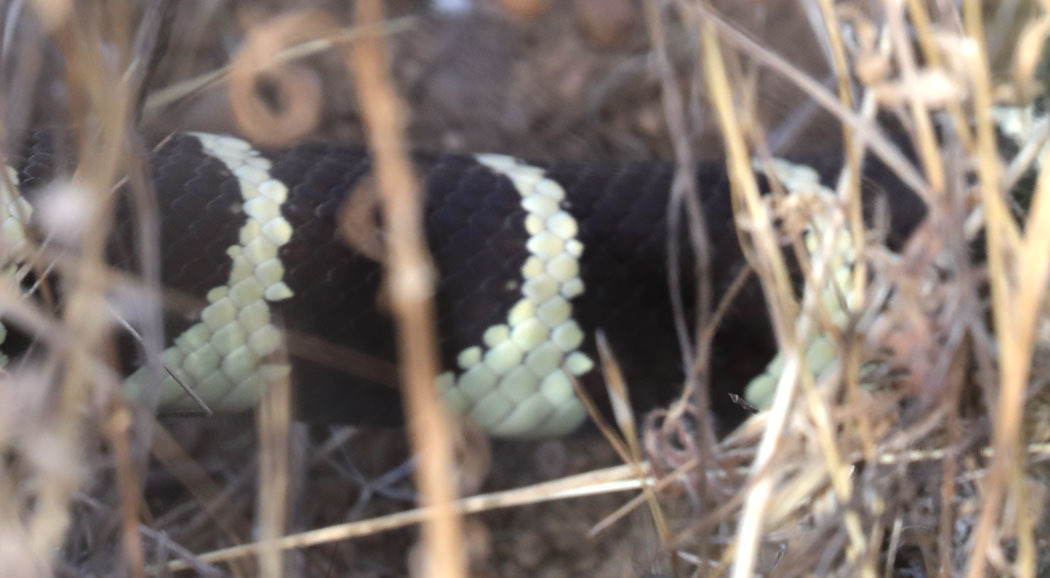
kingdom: Animalia
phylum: Chordata
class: Squamata
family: Colubridae
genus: Lampropeltis
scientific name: Lampropeltis californiae
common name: California kingsnake
